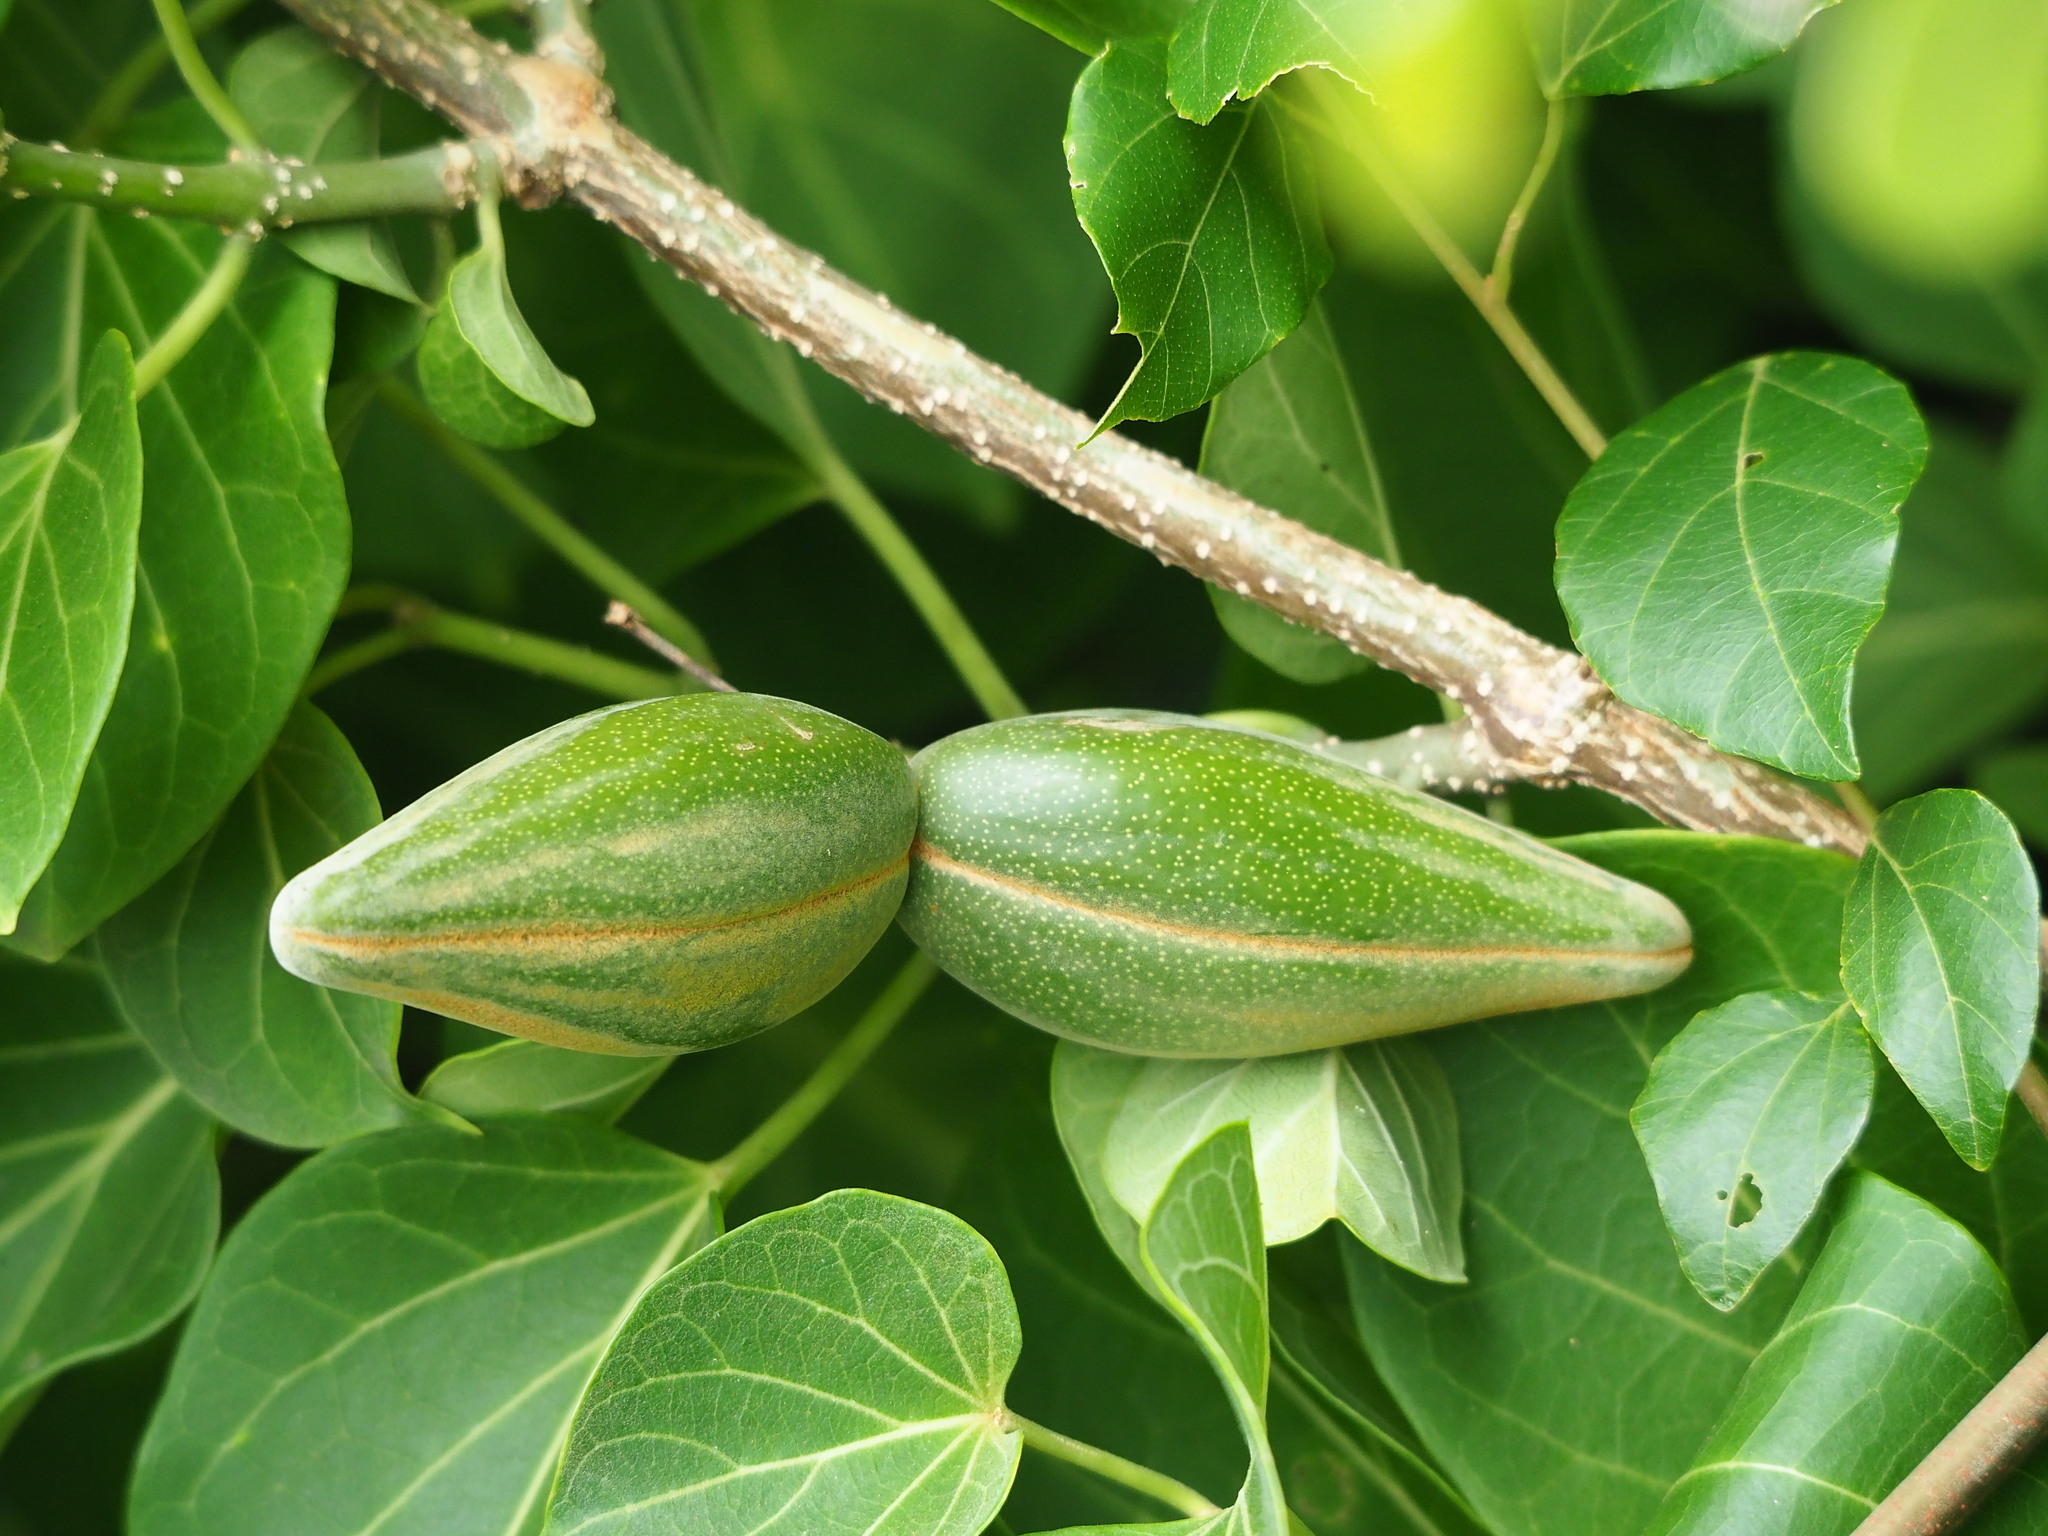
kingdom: Plantae
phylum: Tracheophyta
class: Magnoliopsida
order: Gentianales
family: Apocynaceae
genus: Stephanotis
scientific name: Stephanotis volubilis
